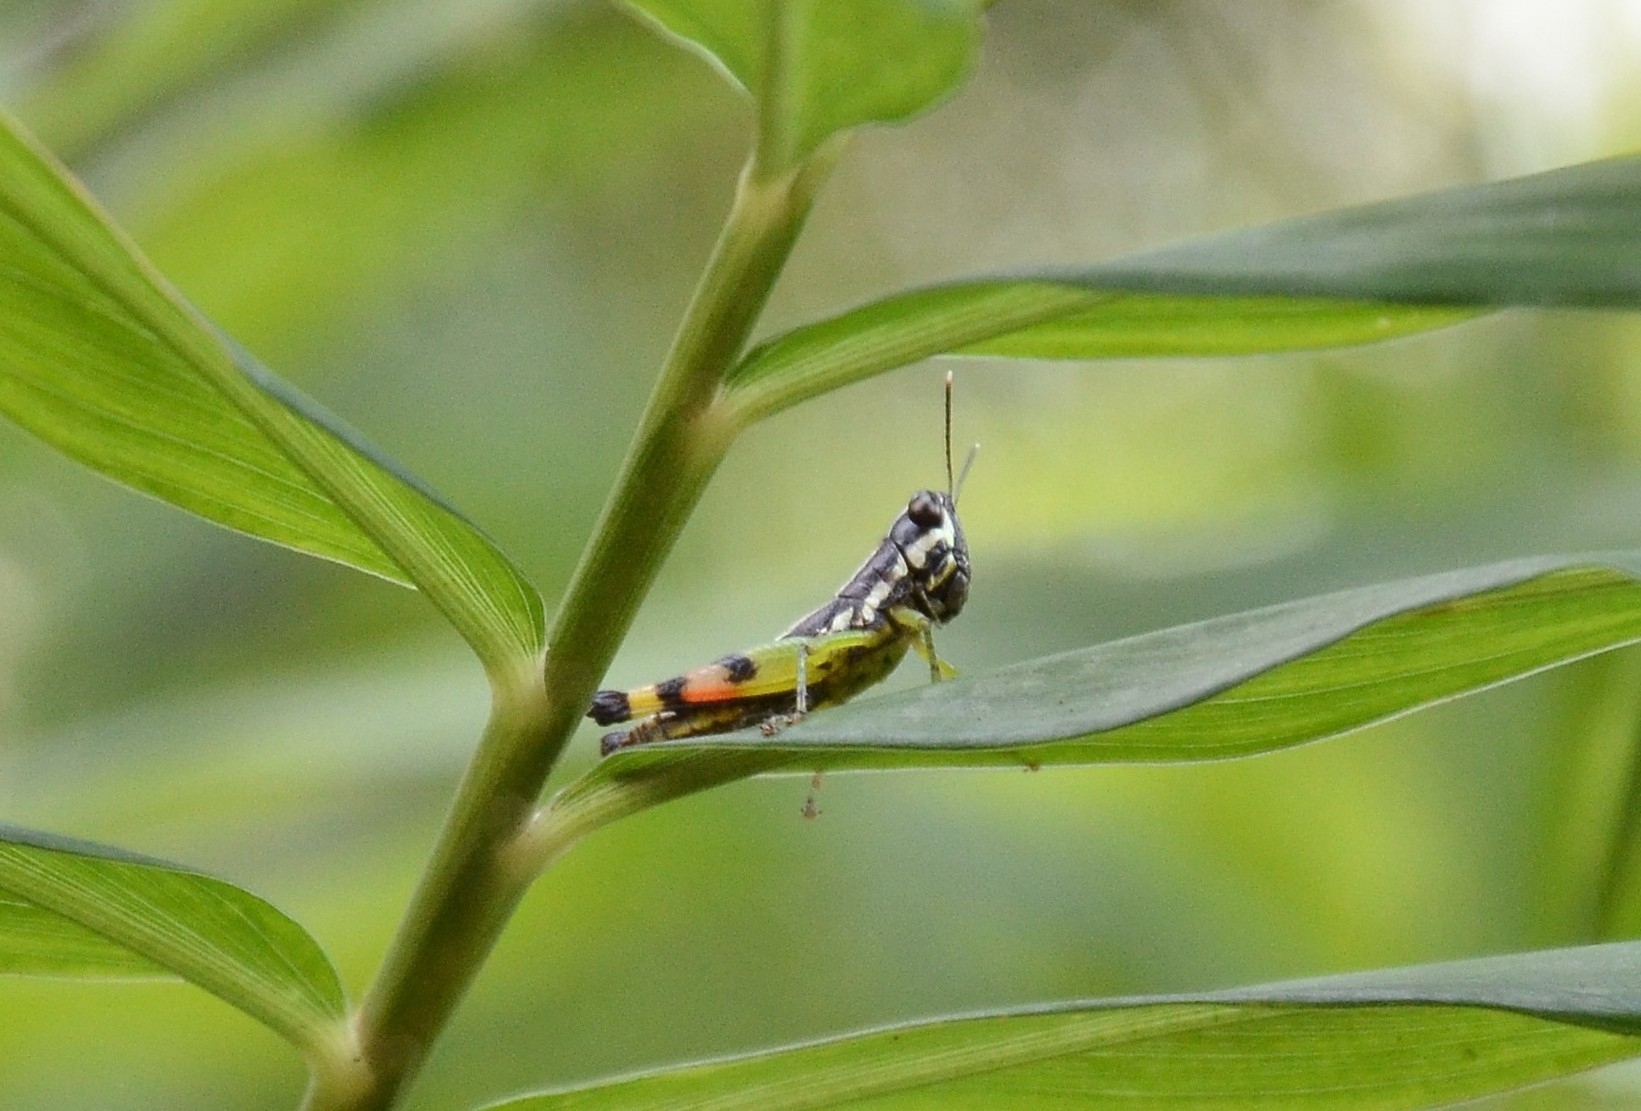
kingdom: Animalia
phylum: Arthropoda
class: Insecta
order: Orthoptera
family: Acrididae
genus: Chitaura
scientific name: Chitaura indica
